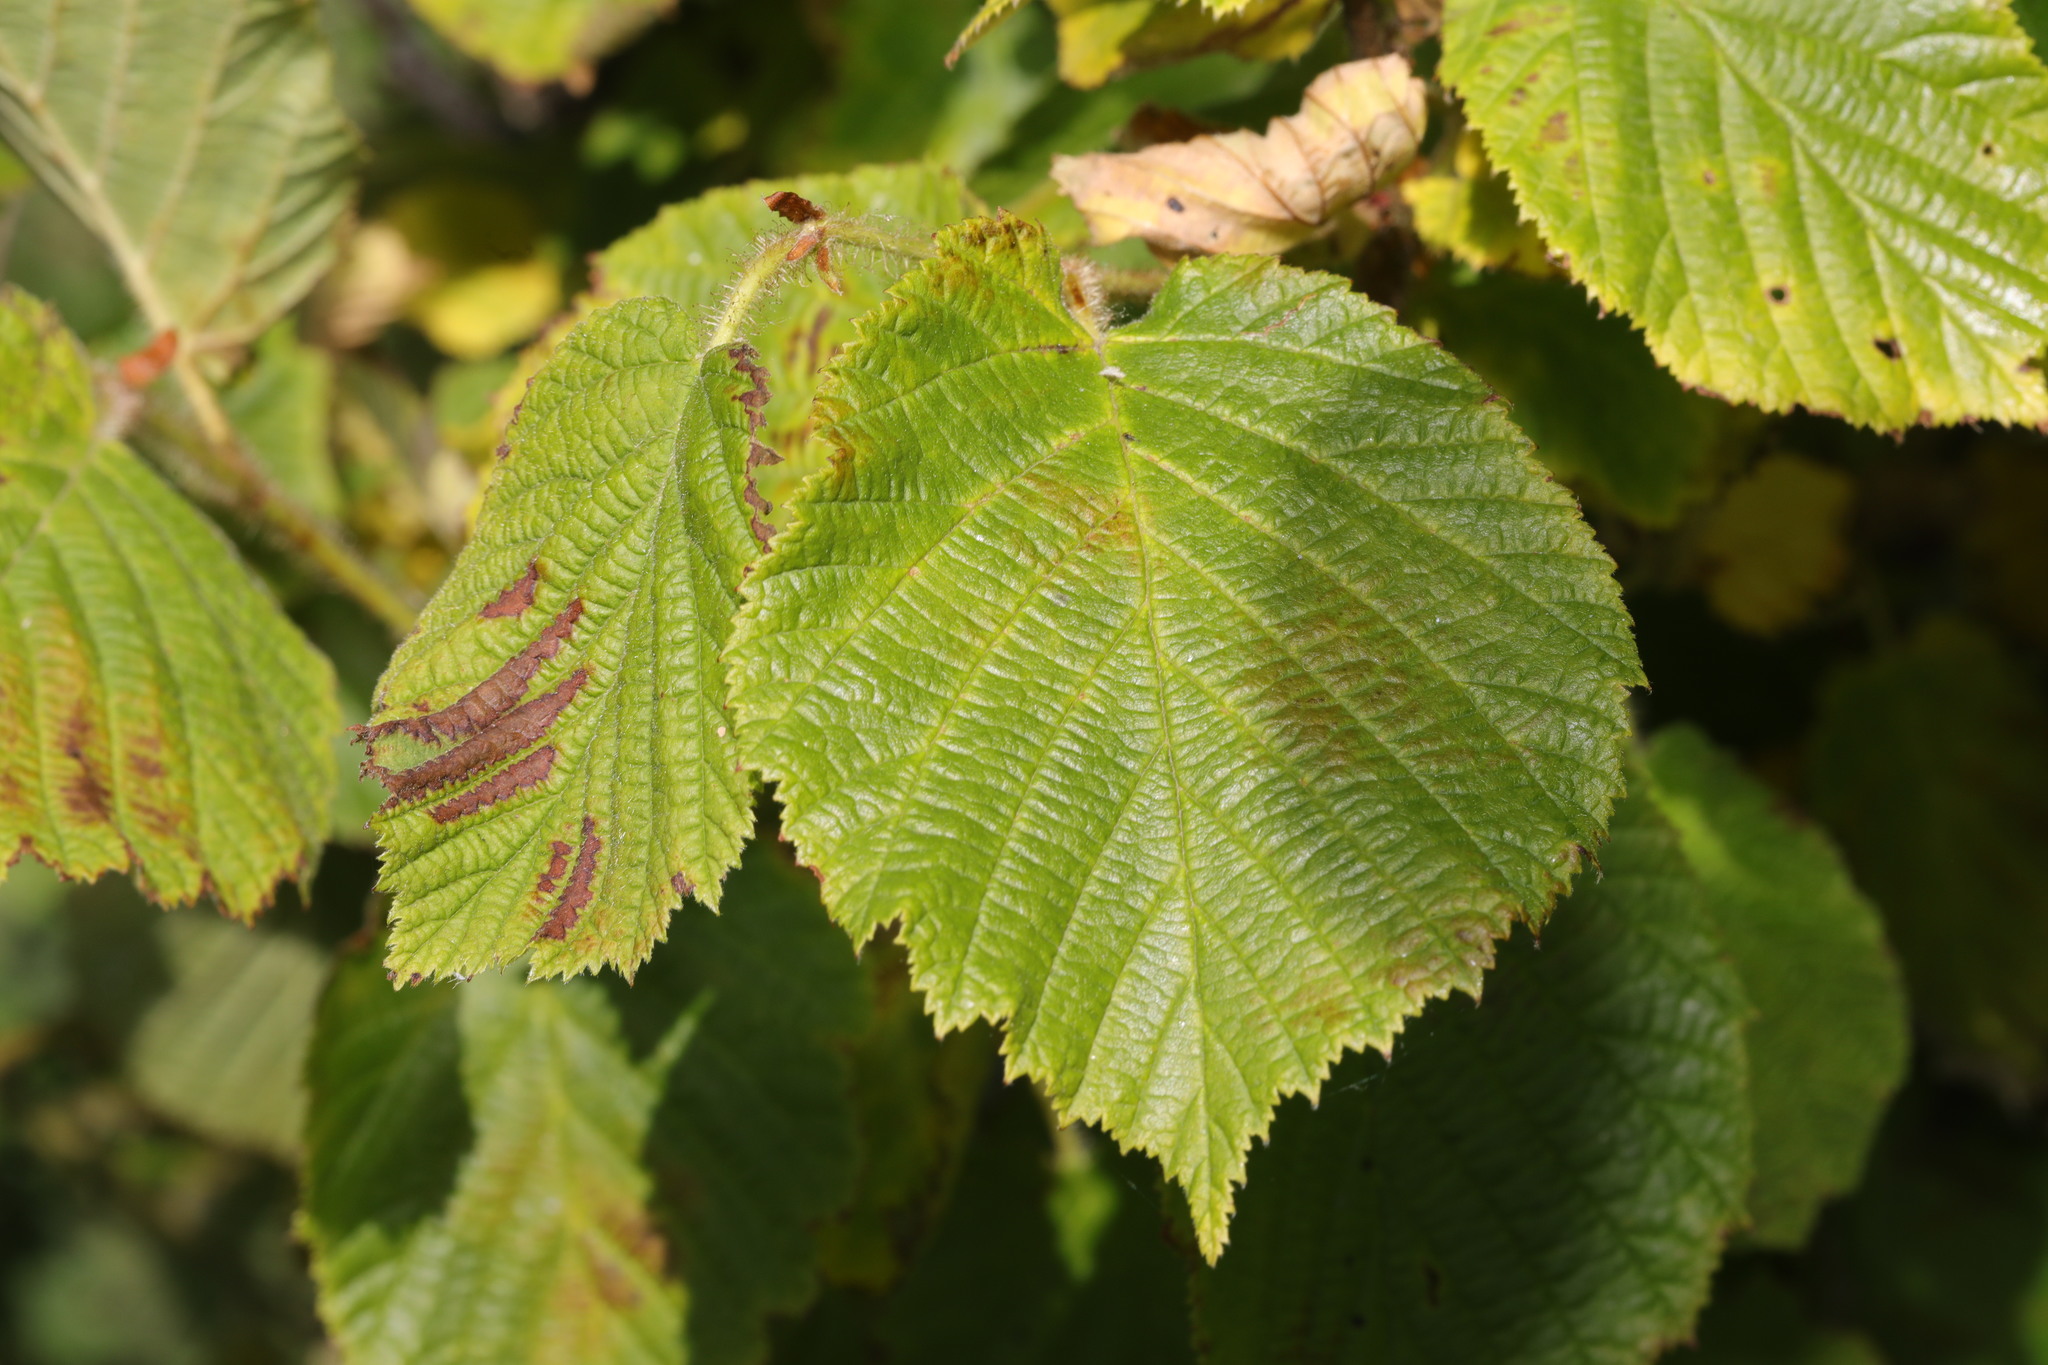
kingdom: Plantae
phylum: Tracheophyta
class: Magnoliopsida
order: Fagales
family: Betulaceae
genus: Corylus
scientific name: Corylus avellana
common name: European hazel
